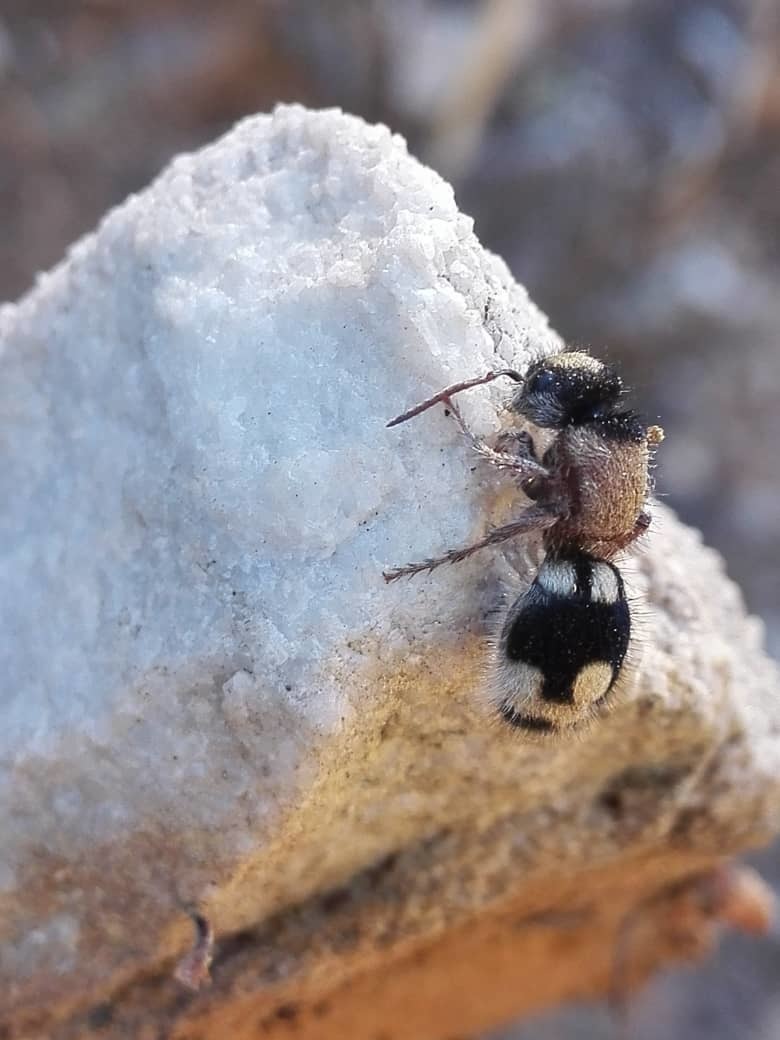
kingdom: Animalia
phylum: Arthropoda
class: Insecta
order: Hymenoptera
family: Mutillidae
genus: Ronisia
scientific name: Ronisia ghilianii
